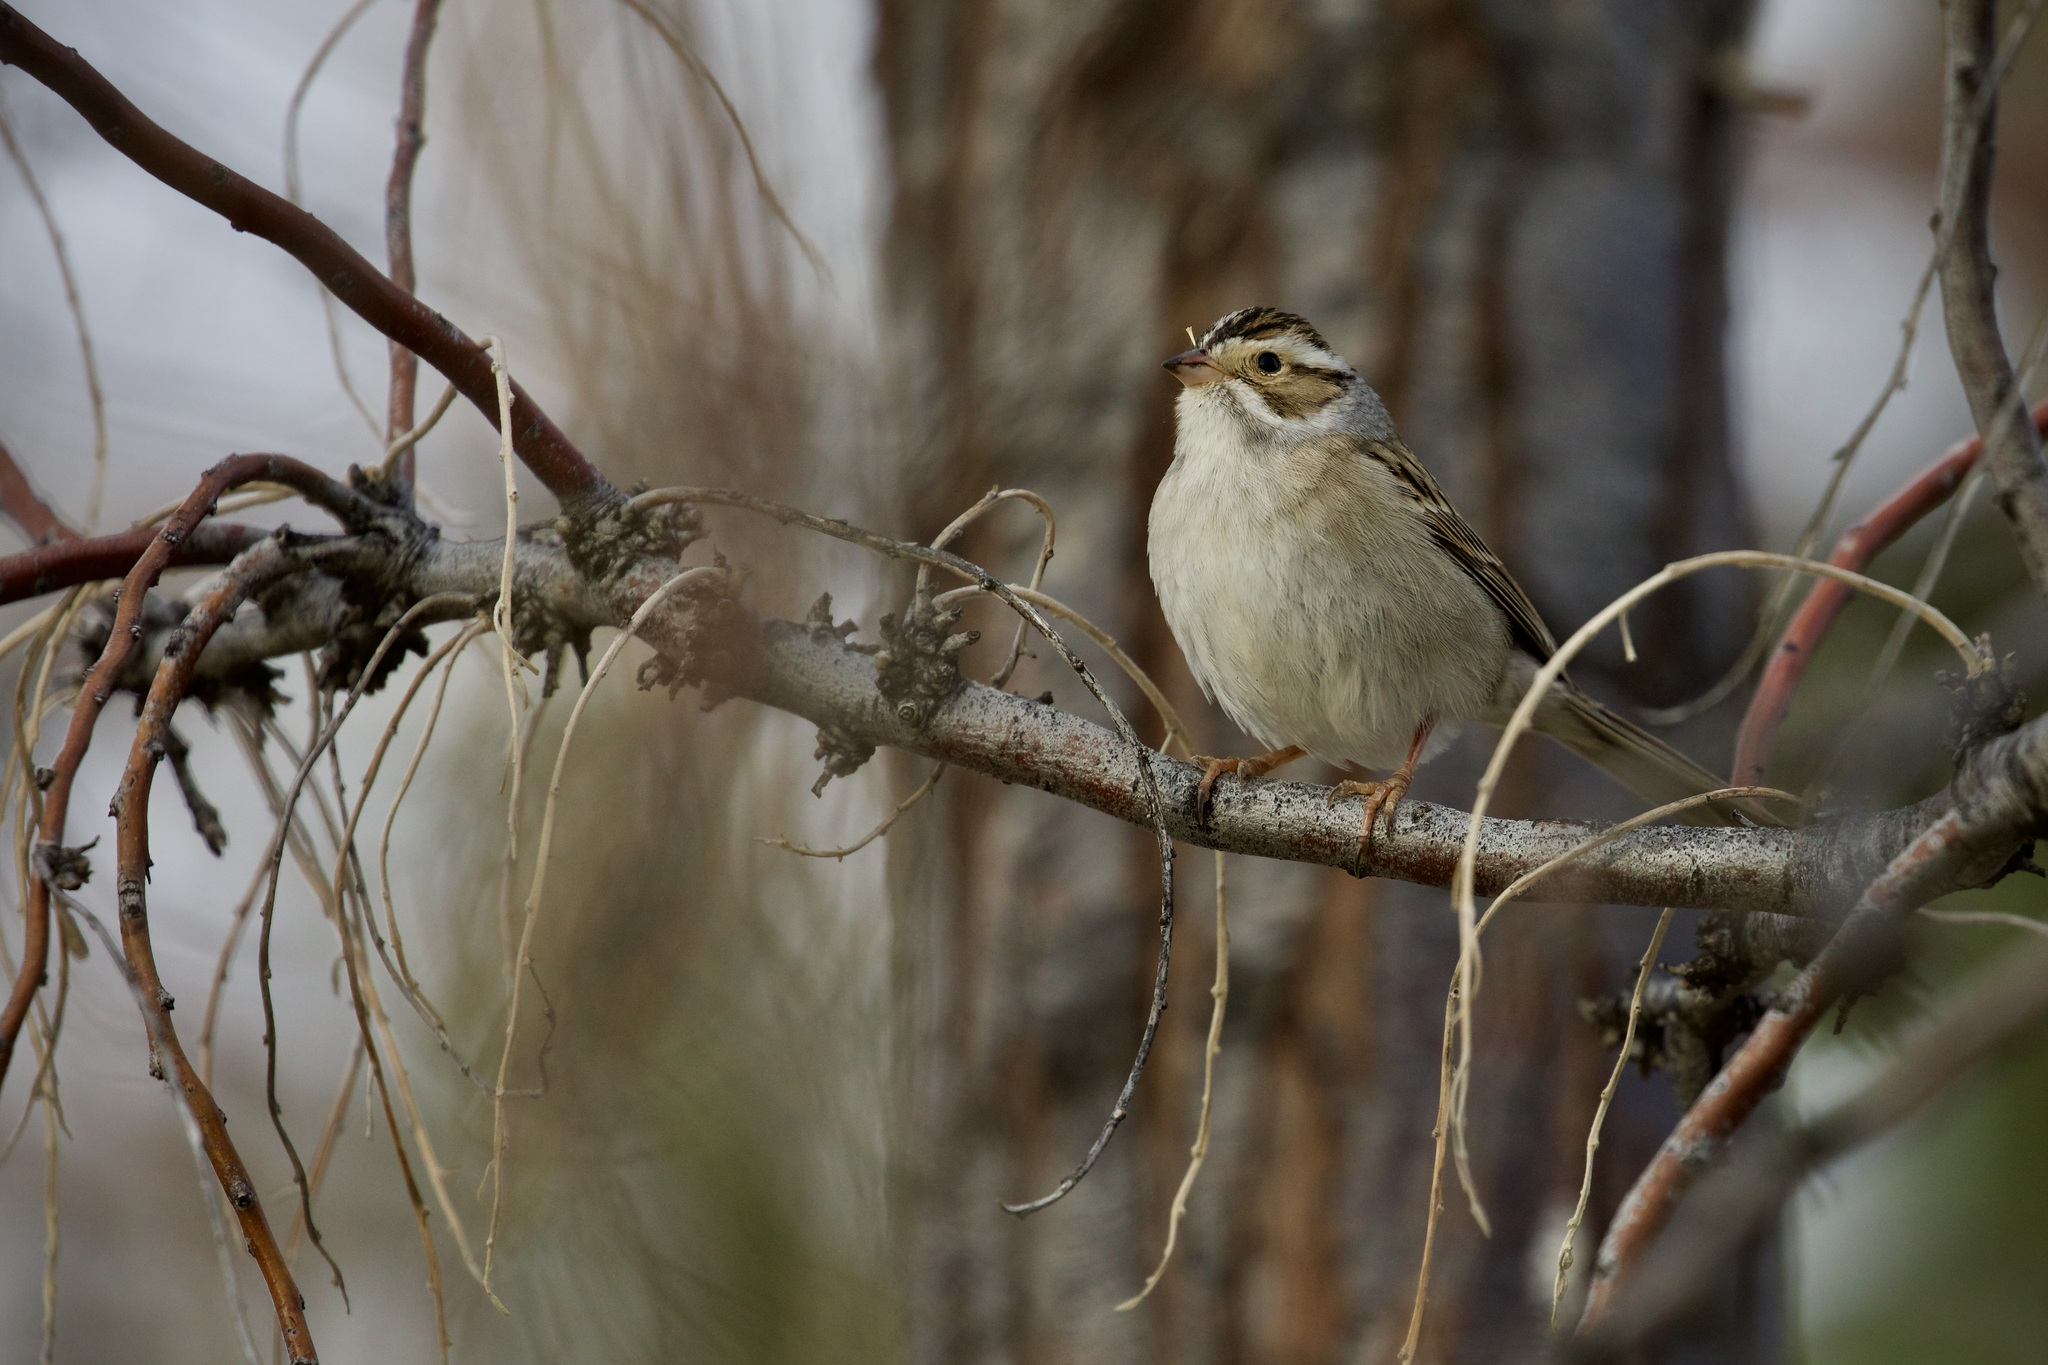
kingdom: Animalia
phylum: Chordata
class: Aves
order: Passeriformes
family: Passerellidae
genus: Spizella
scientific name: Spizella pallida
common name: Clay-colored sparrow
